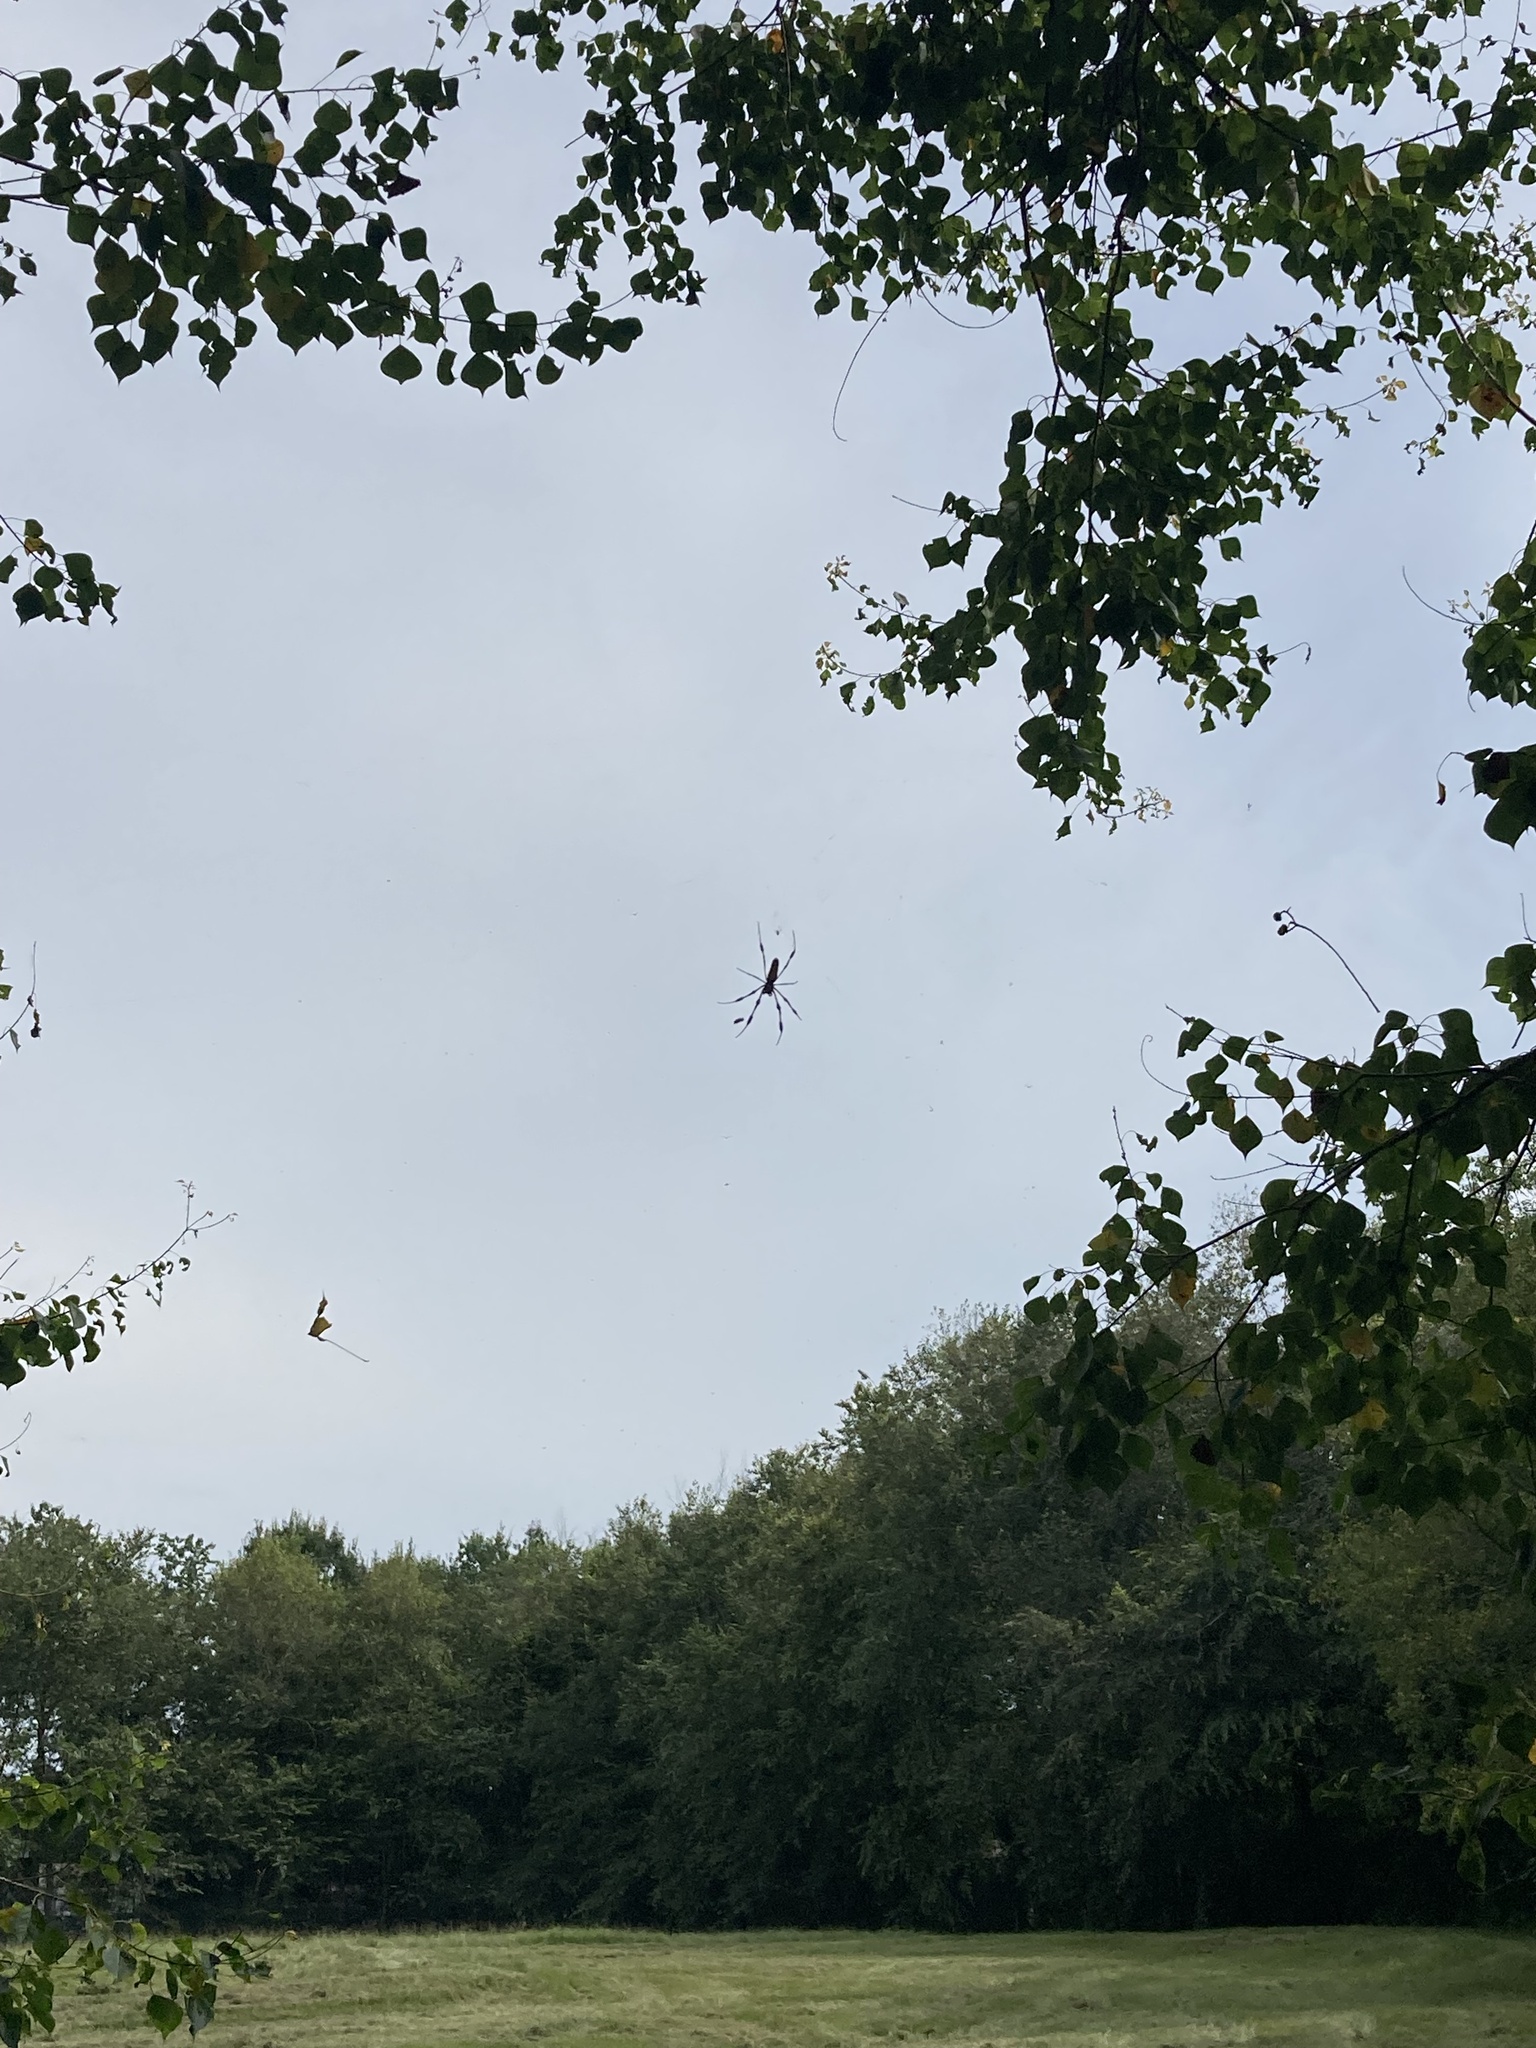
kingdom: Animalia
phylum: Arthropoda
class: Arachnida
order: Araneae
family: Araneidae
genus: Trichonephila
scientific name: Trichonephila clavipes
